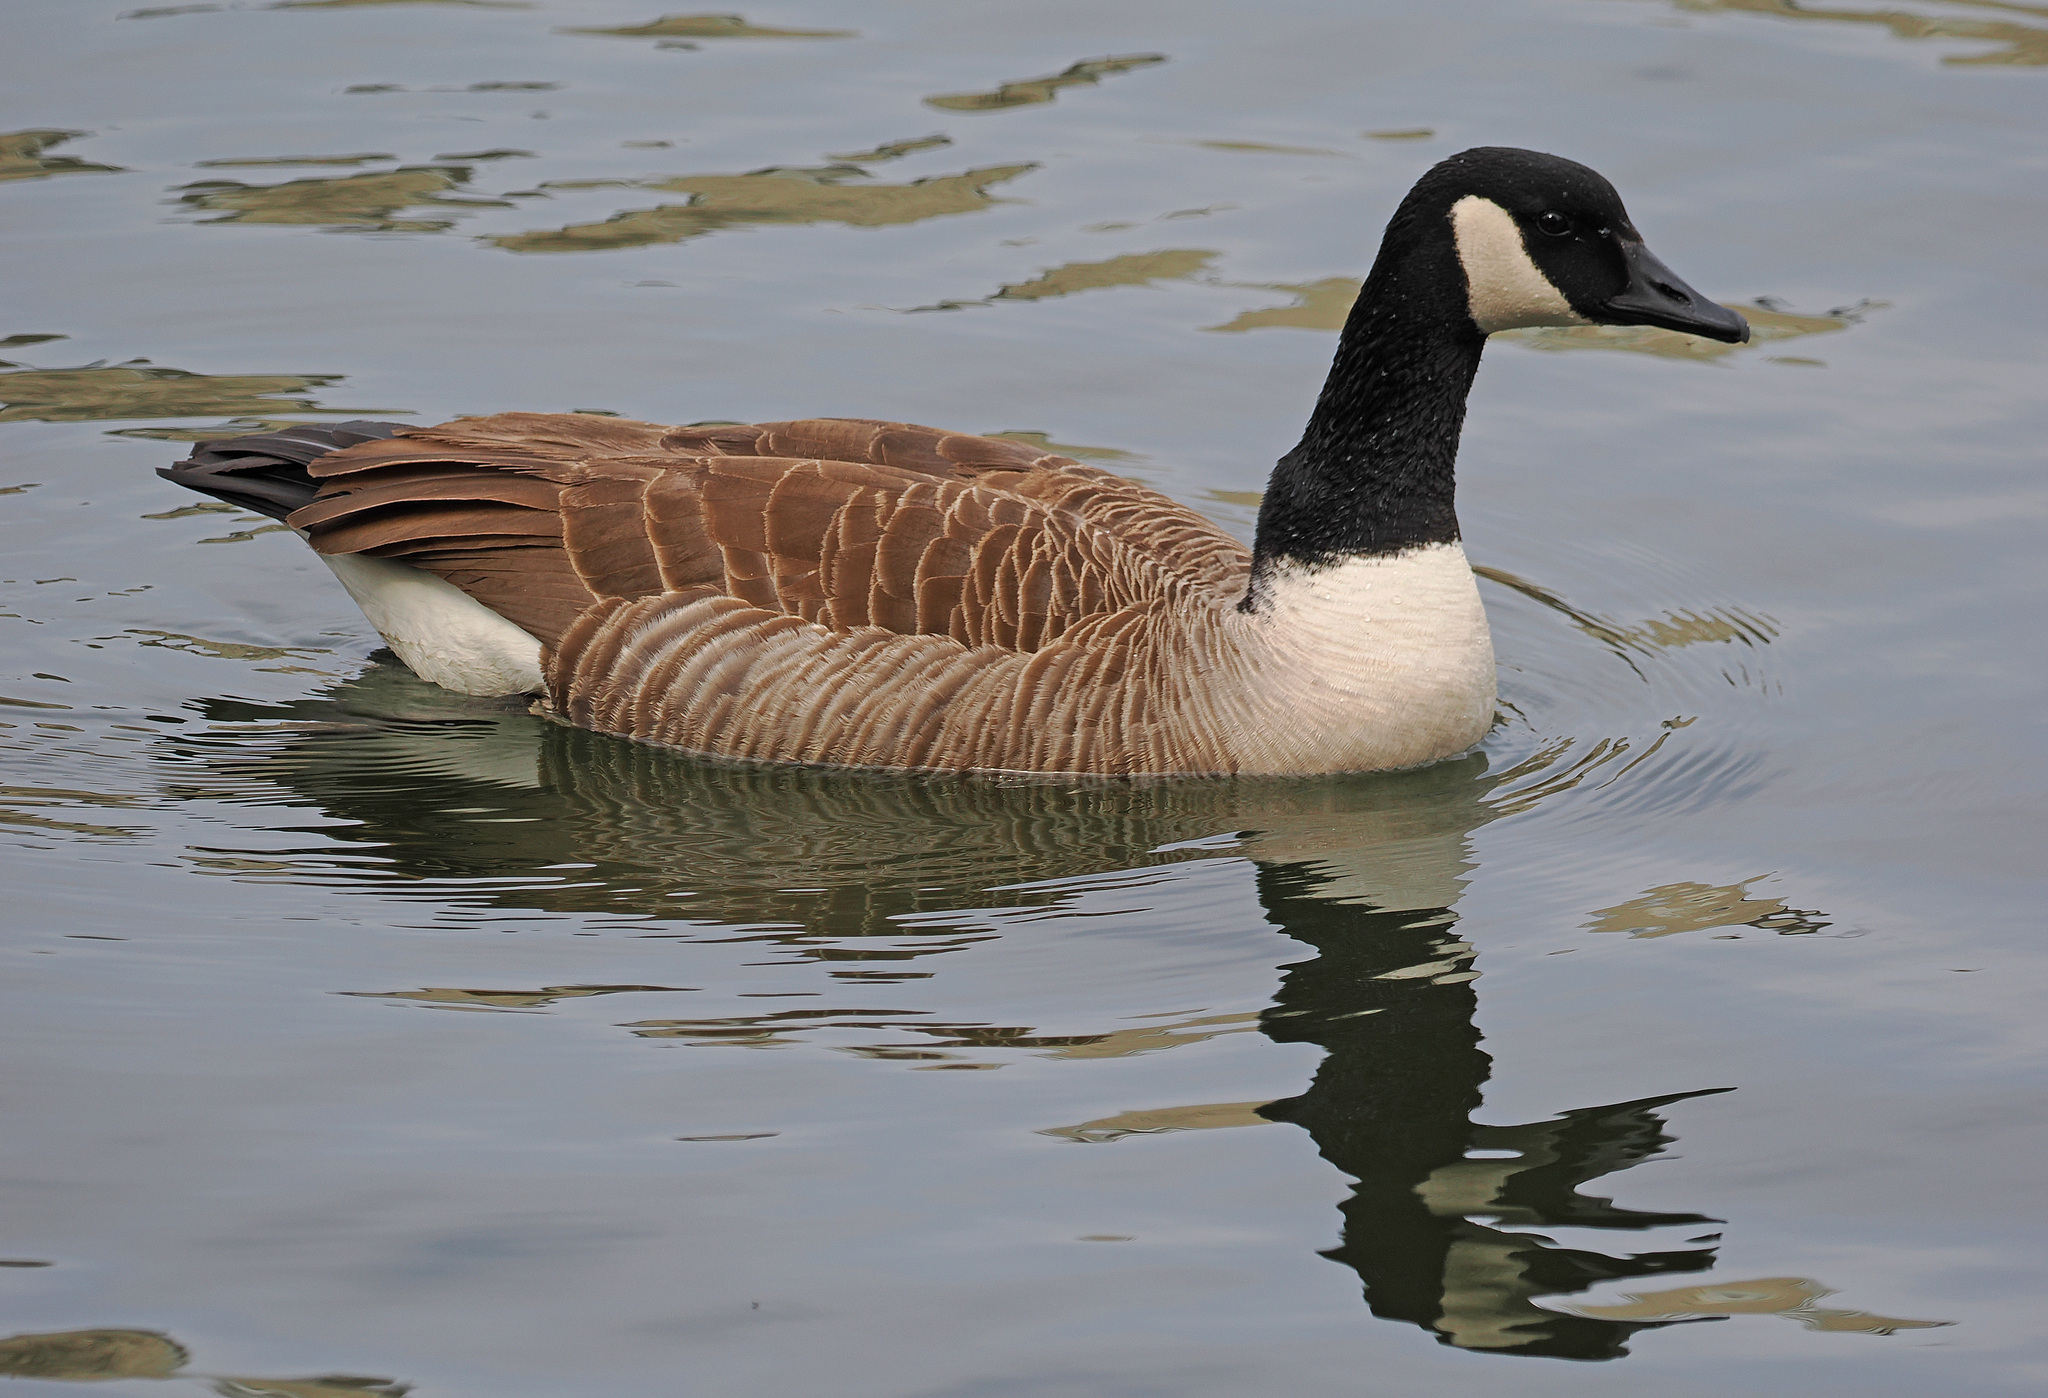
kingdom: Animalia
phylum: Chordata
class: Aves
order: Anseriformes
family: Anatidae
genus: Branta
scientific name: Branta canadensis
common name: Canada goose
